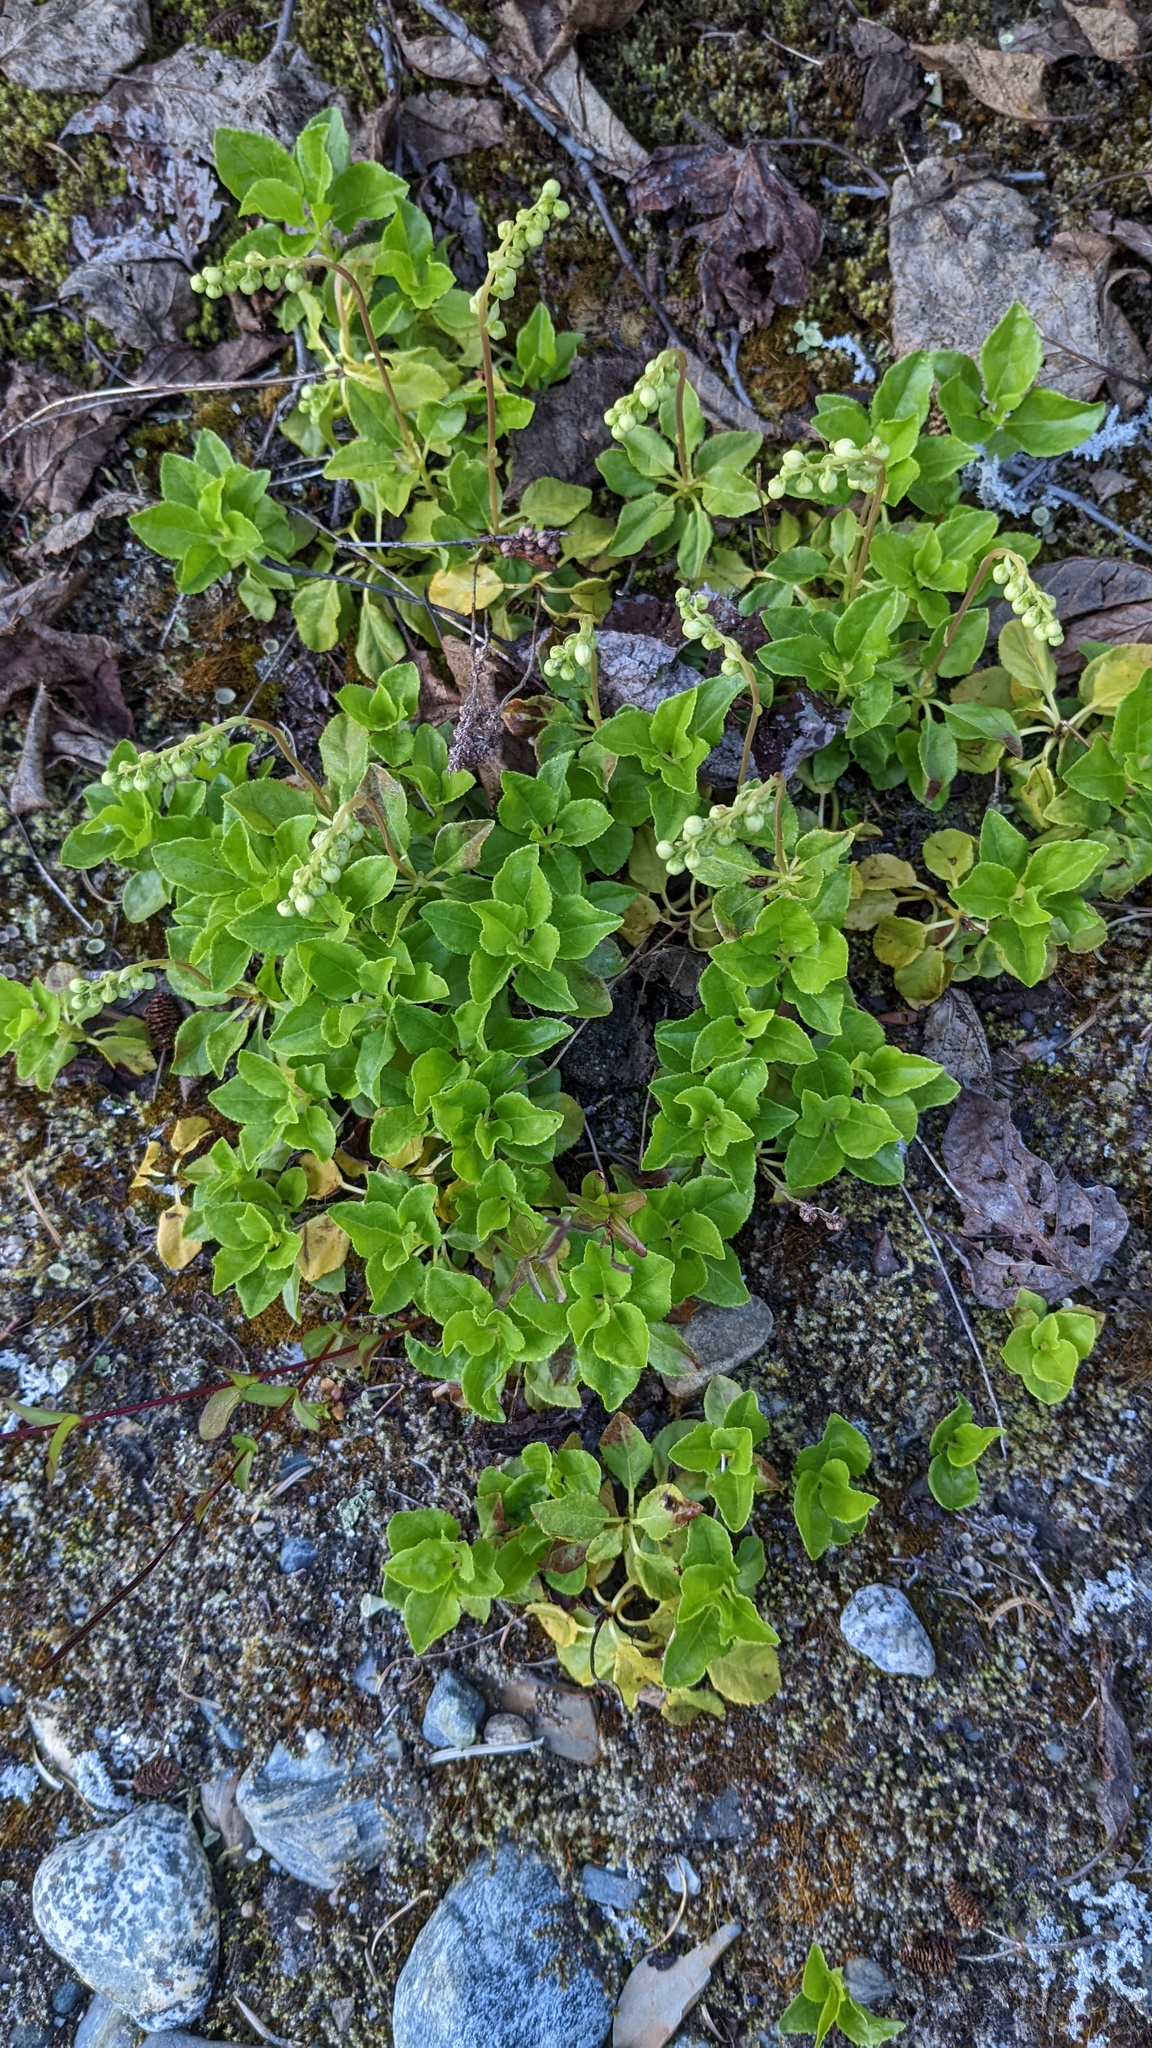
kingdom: Plantae
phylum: Tracheophyta
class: Magnoliopsida
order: Ericales
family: Ericaceae
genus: Orthilia
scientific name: Orthilia secunda
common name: One-sided orthilia
